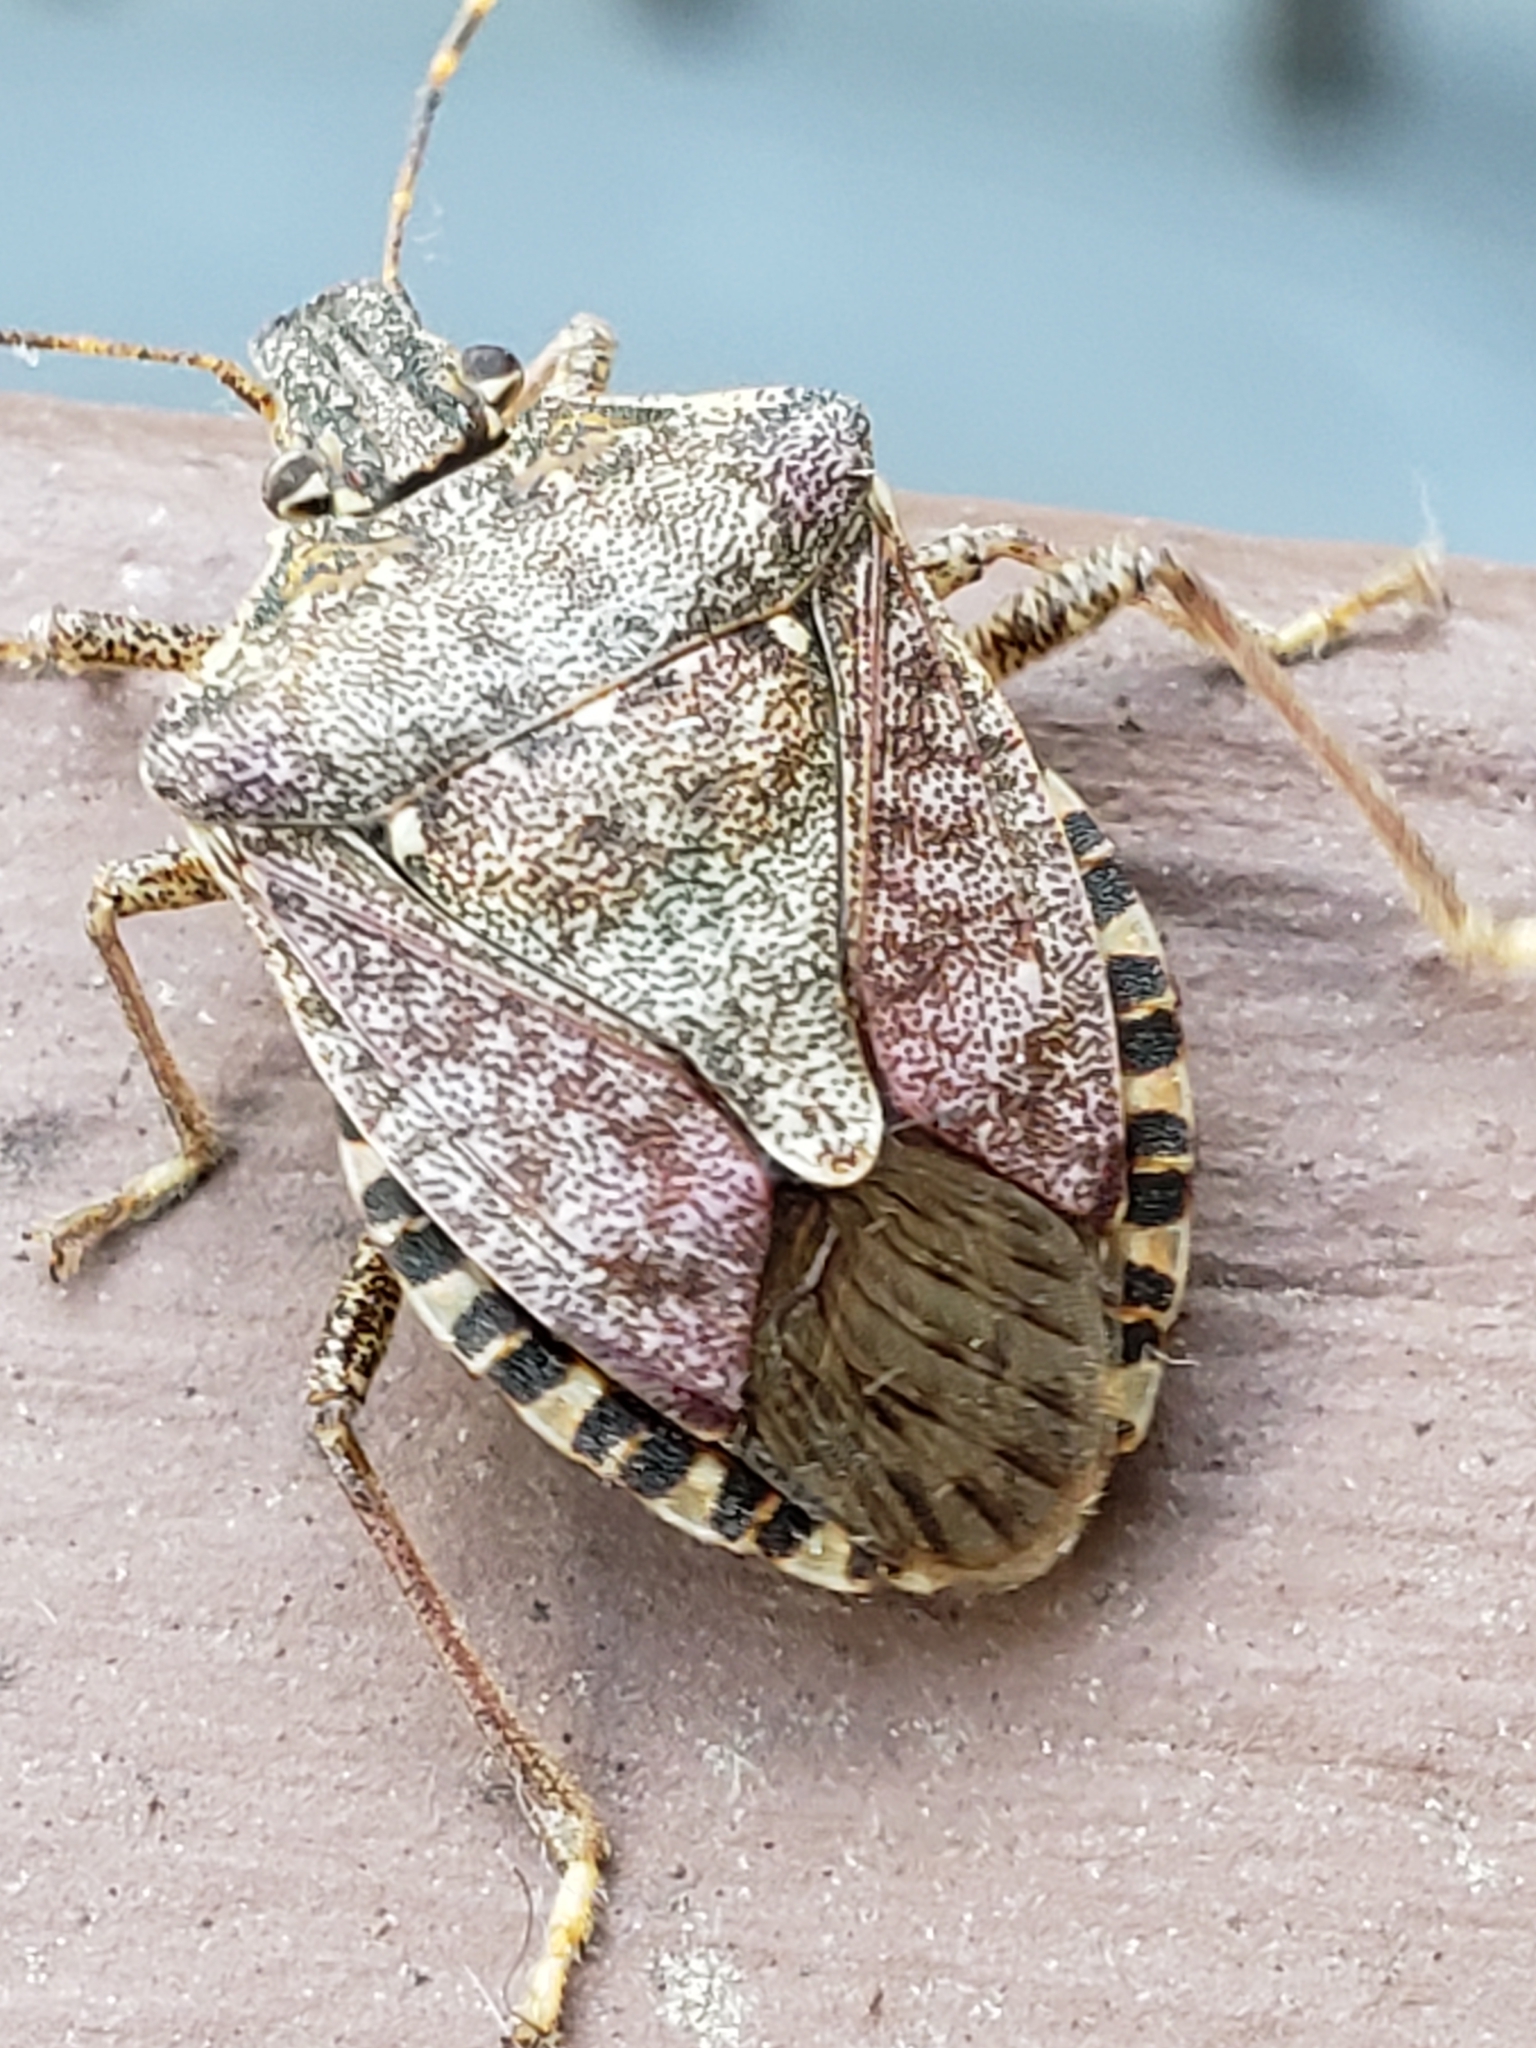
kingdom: Animalia
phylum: Arthropoda
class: Insecta
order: Hemiptera
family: Pentatomidae
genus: Halyomorpha
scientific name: Halyomorpha halys
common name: Brown marmorated stink bug
